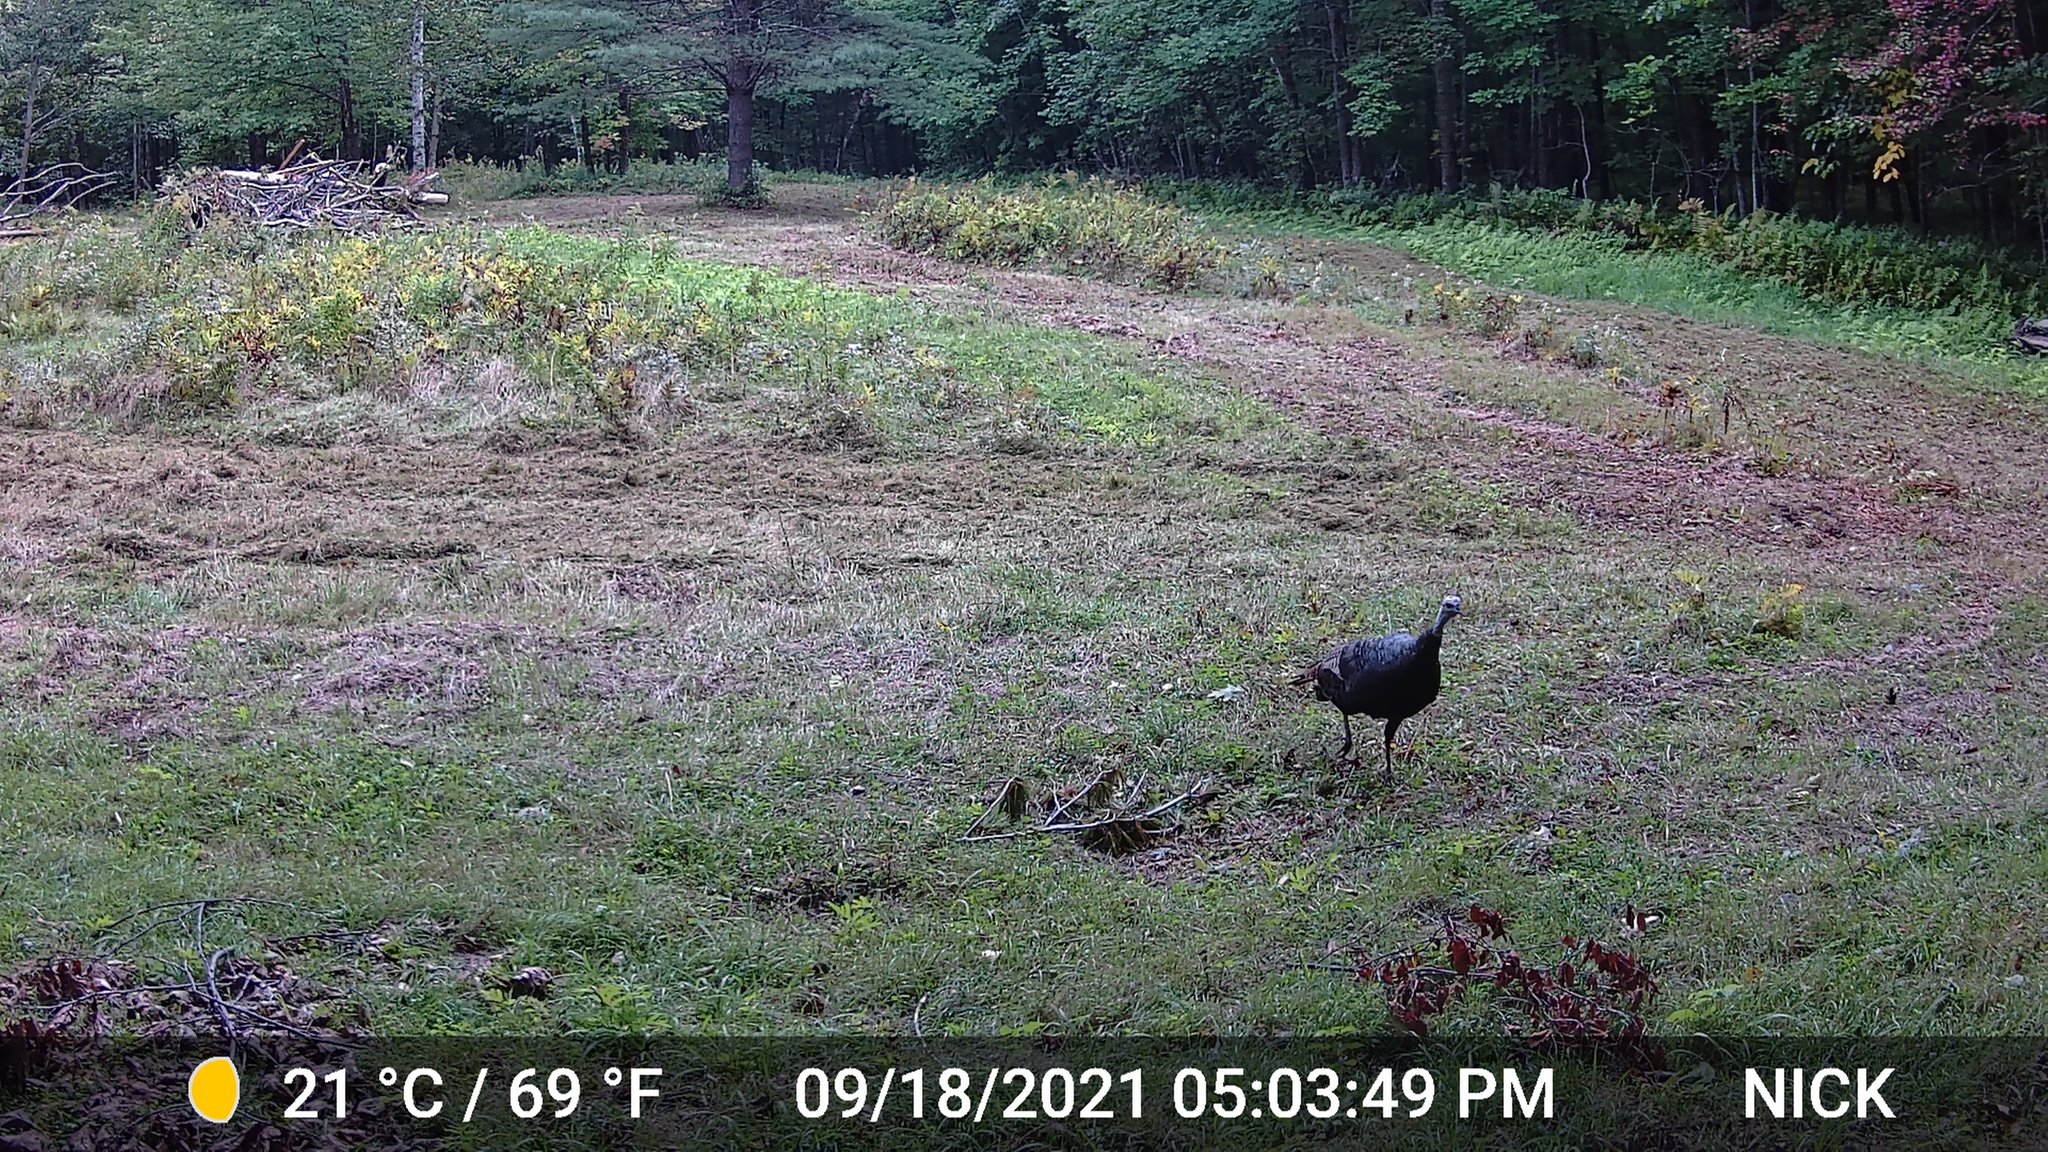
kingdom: Animalia
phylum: Chordata
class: Aves
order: Galliformes
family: Phasianidae
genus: Meleagris
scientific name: Meleagris gallopavo
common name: Wild turkey
